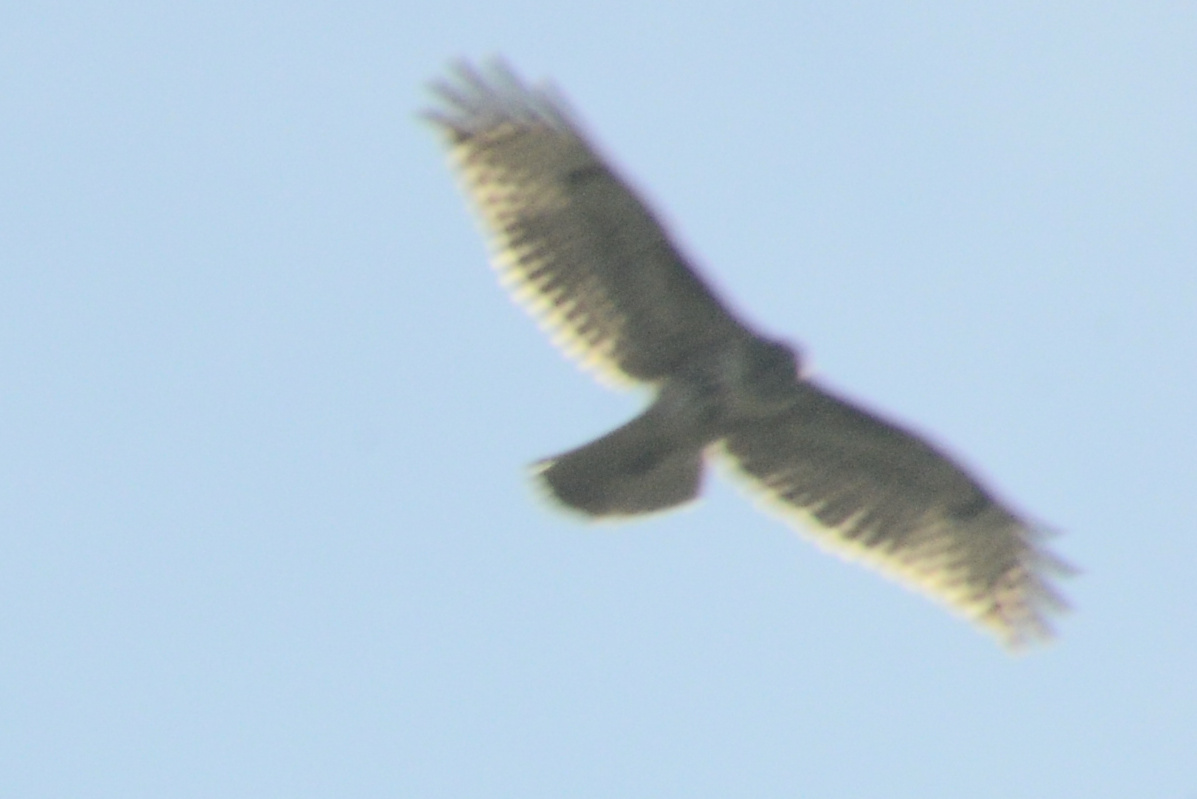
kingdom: Animalia
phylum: Chordata
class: Aves
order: Accipitriformes
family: Accipitridae
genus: Buteo
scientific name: Buteo jamaicensis
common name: Red-tailed hawk
